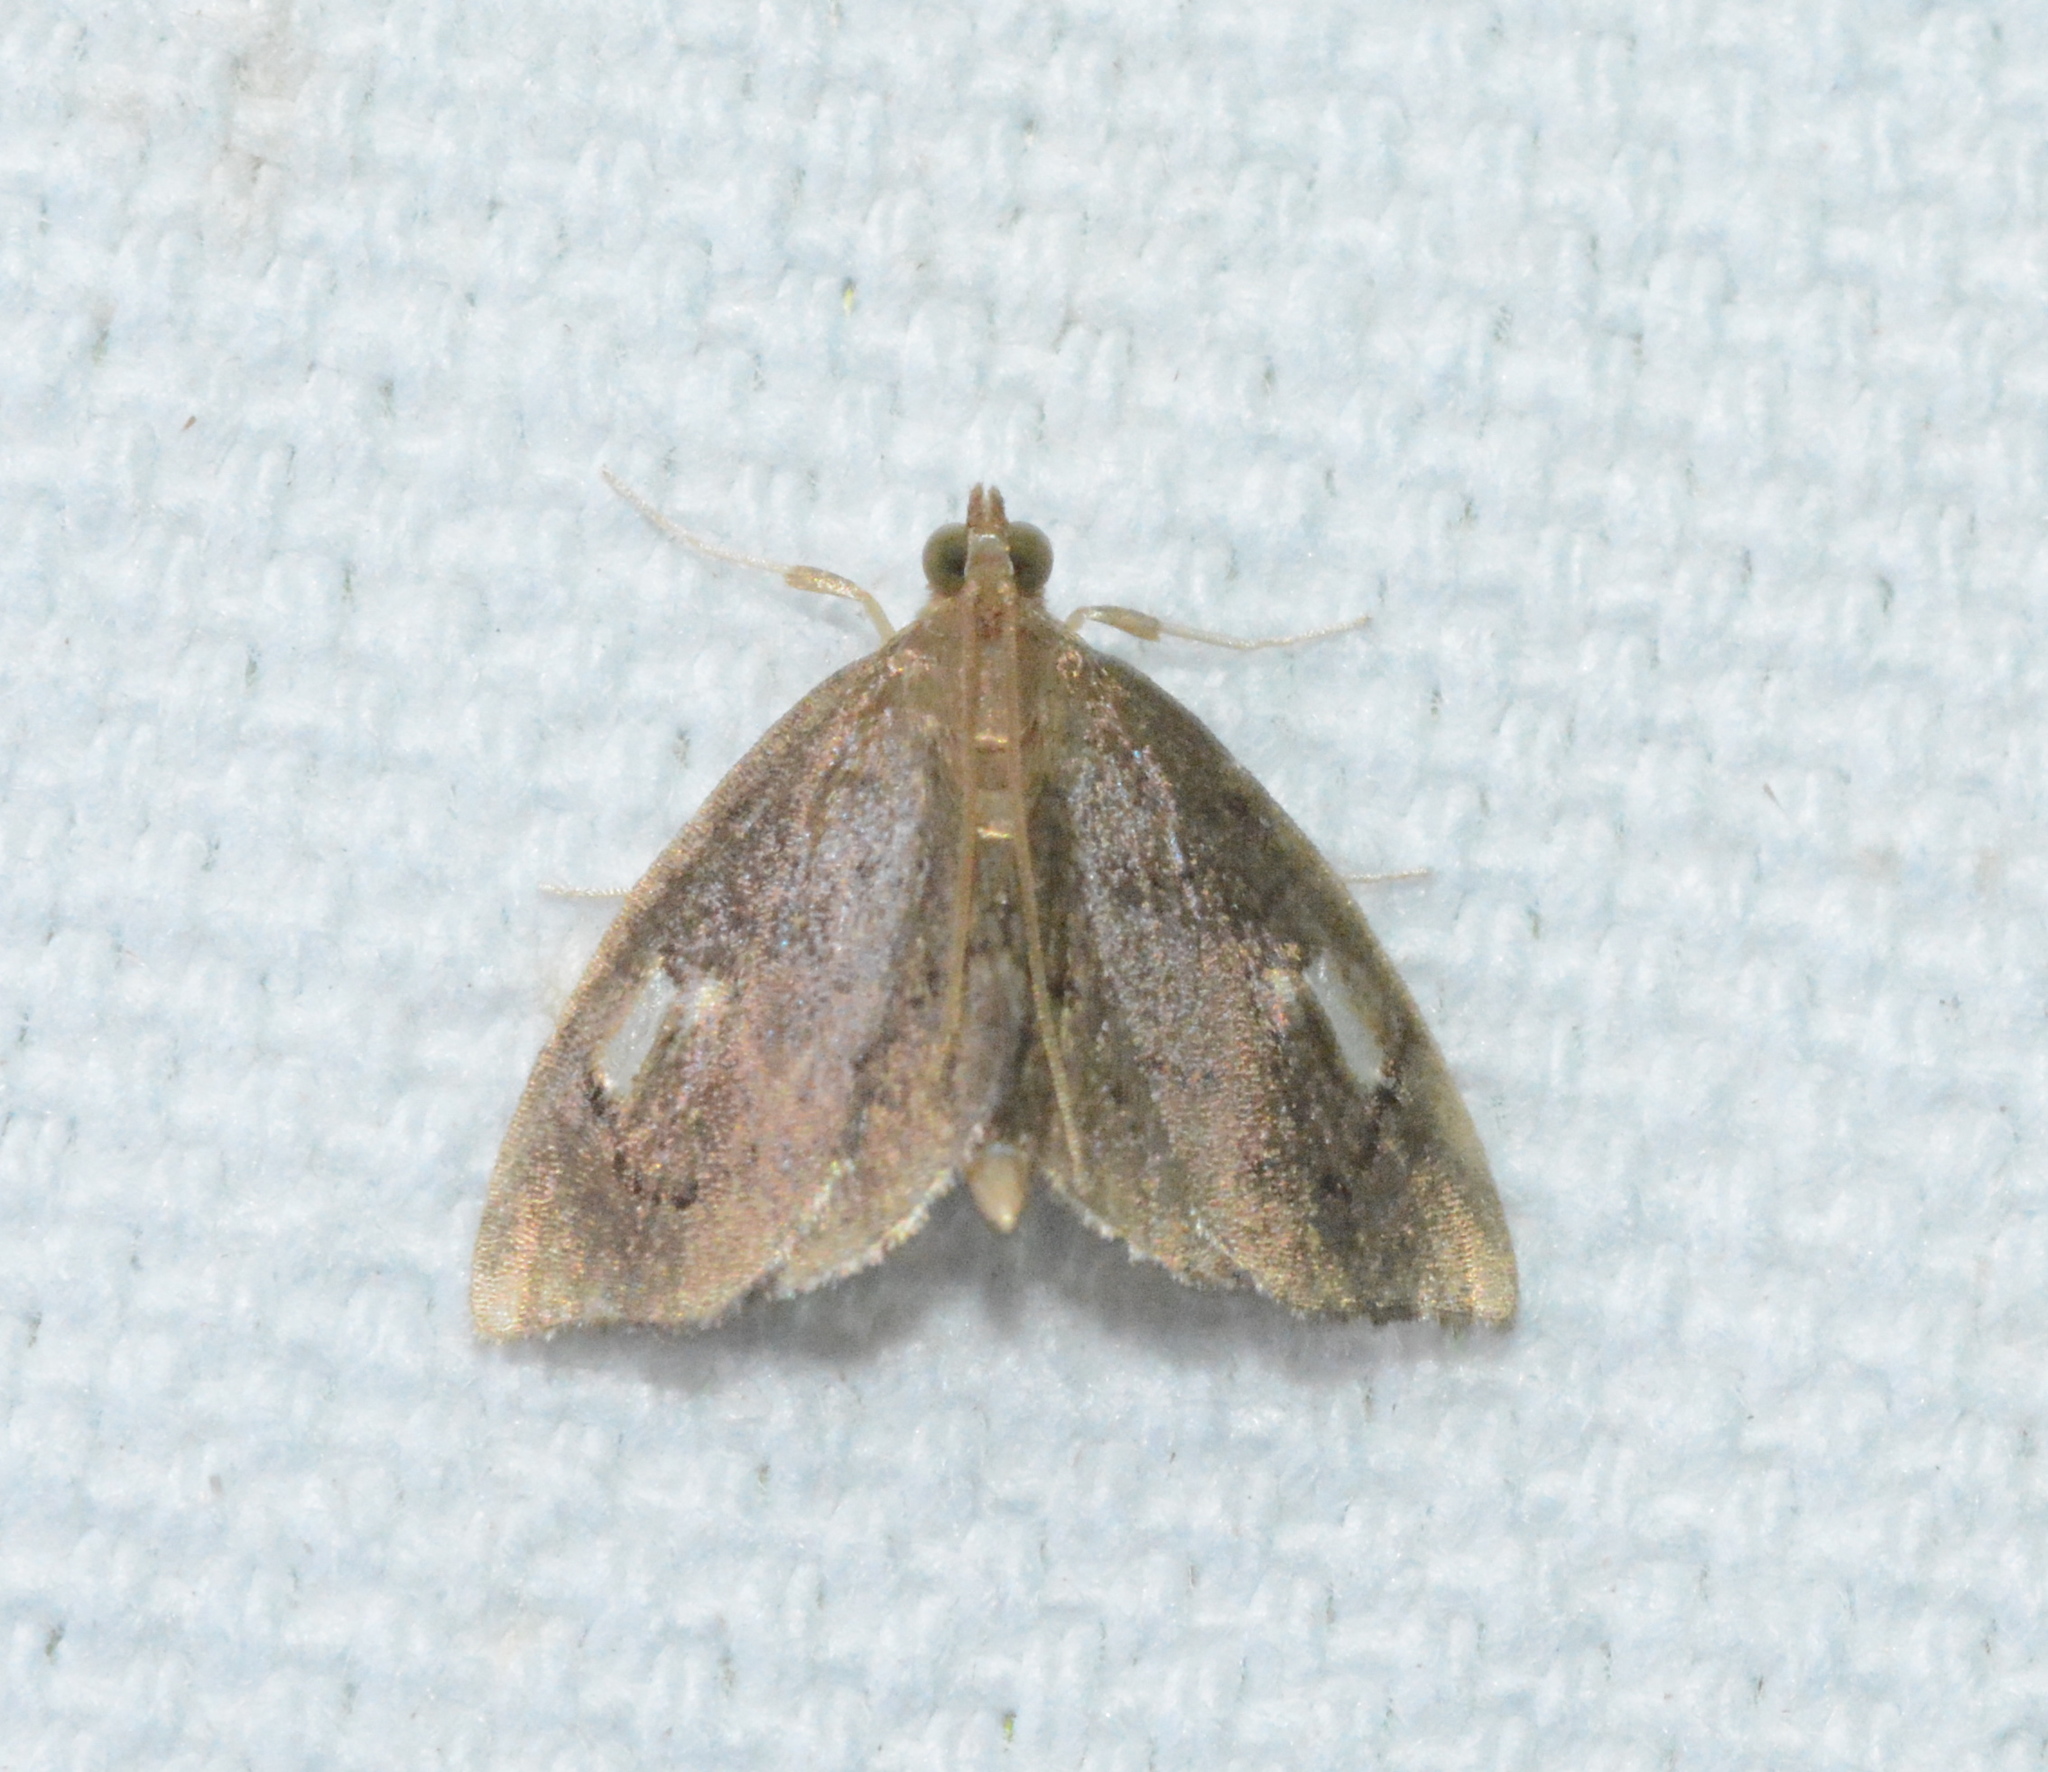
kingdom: Animalia
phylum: Arthropoda
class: Insecta
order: Lepidoptera
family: Crambidae
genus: Perispasta
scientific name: Perispasta caeculalis
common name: Titian peale's moth
